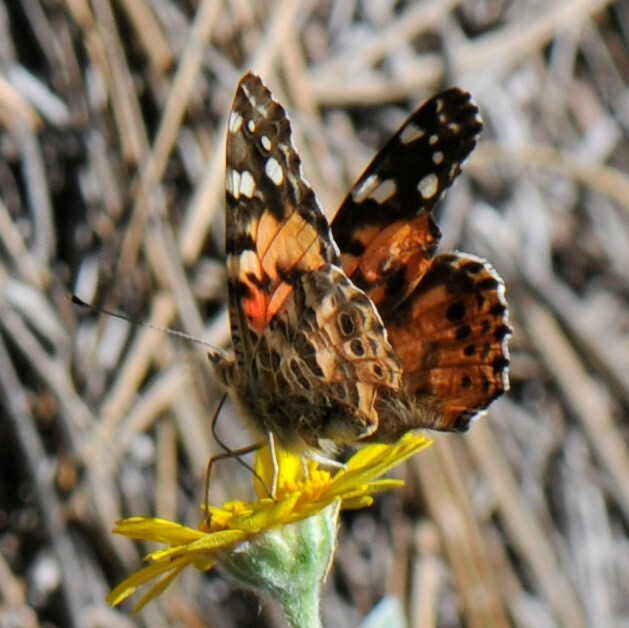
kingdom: Animalia
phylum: Arthropoda
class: Insecta
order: Lepidoptera
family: Nymphalidae
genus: Vanessa
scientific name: Vanessa cardui
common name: Painted lady
